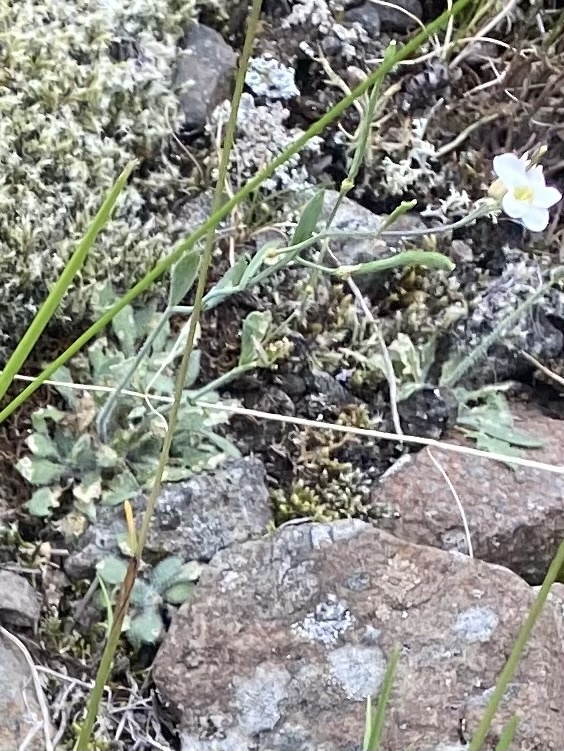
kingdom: Plantae
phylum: Tracheophyta
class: Magnoliopsida
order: Brassicales
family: Brassicaceae
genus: Arabidopsis
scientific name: Arabidopsis lyrata
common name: Lyrate rockcress
